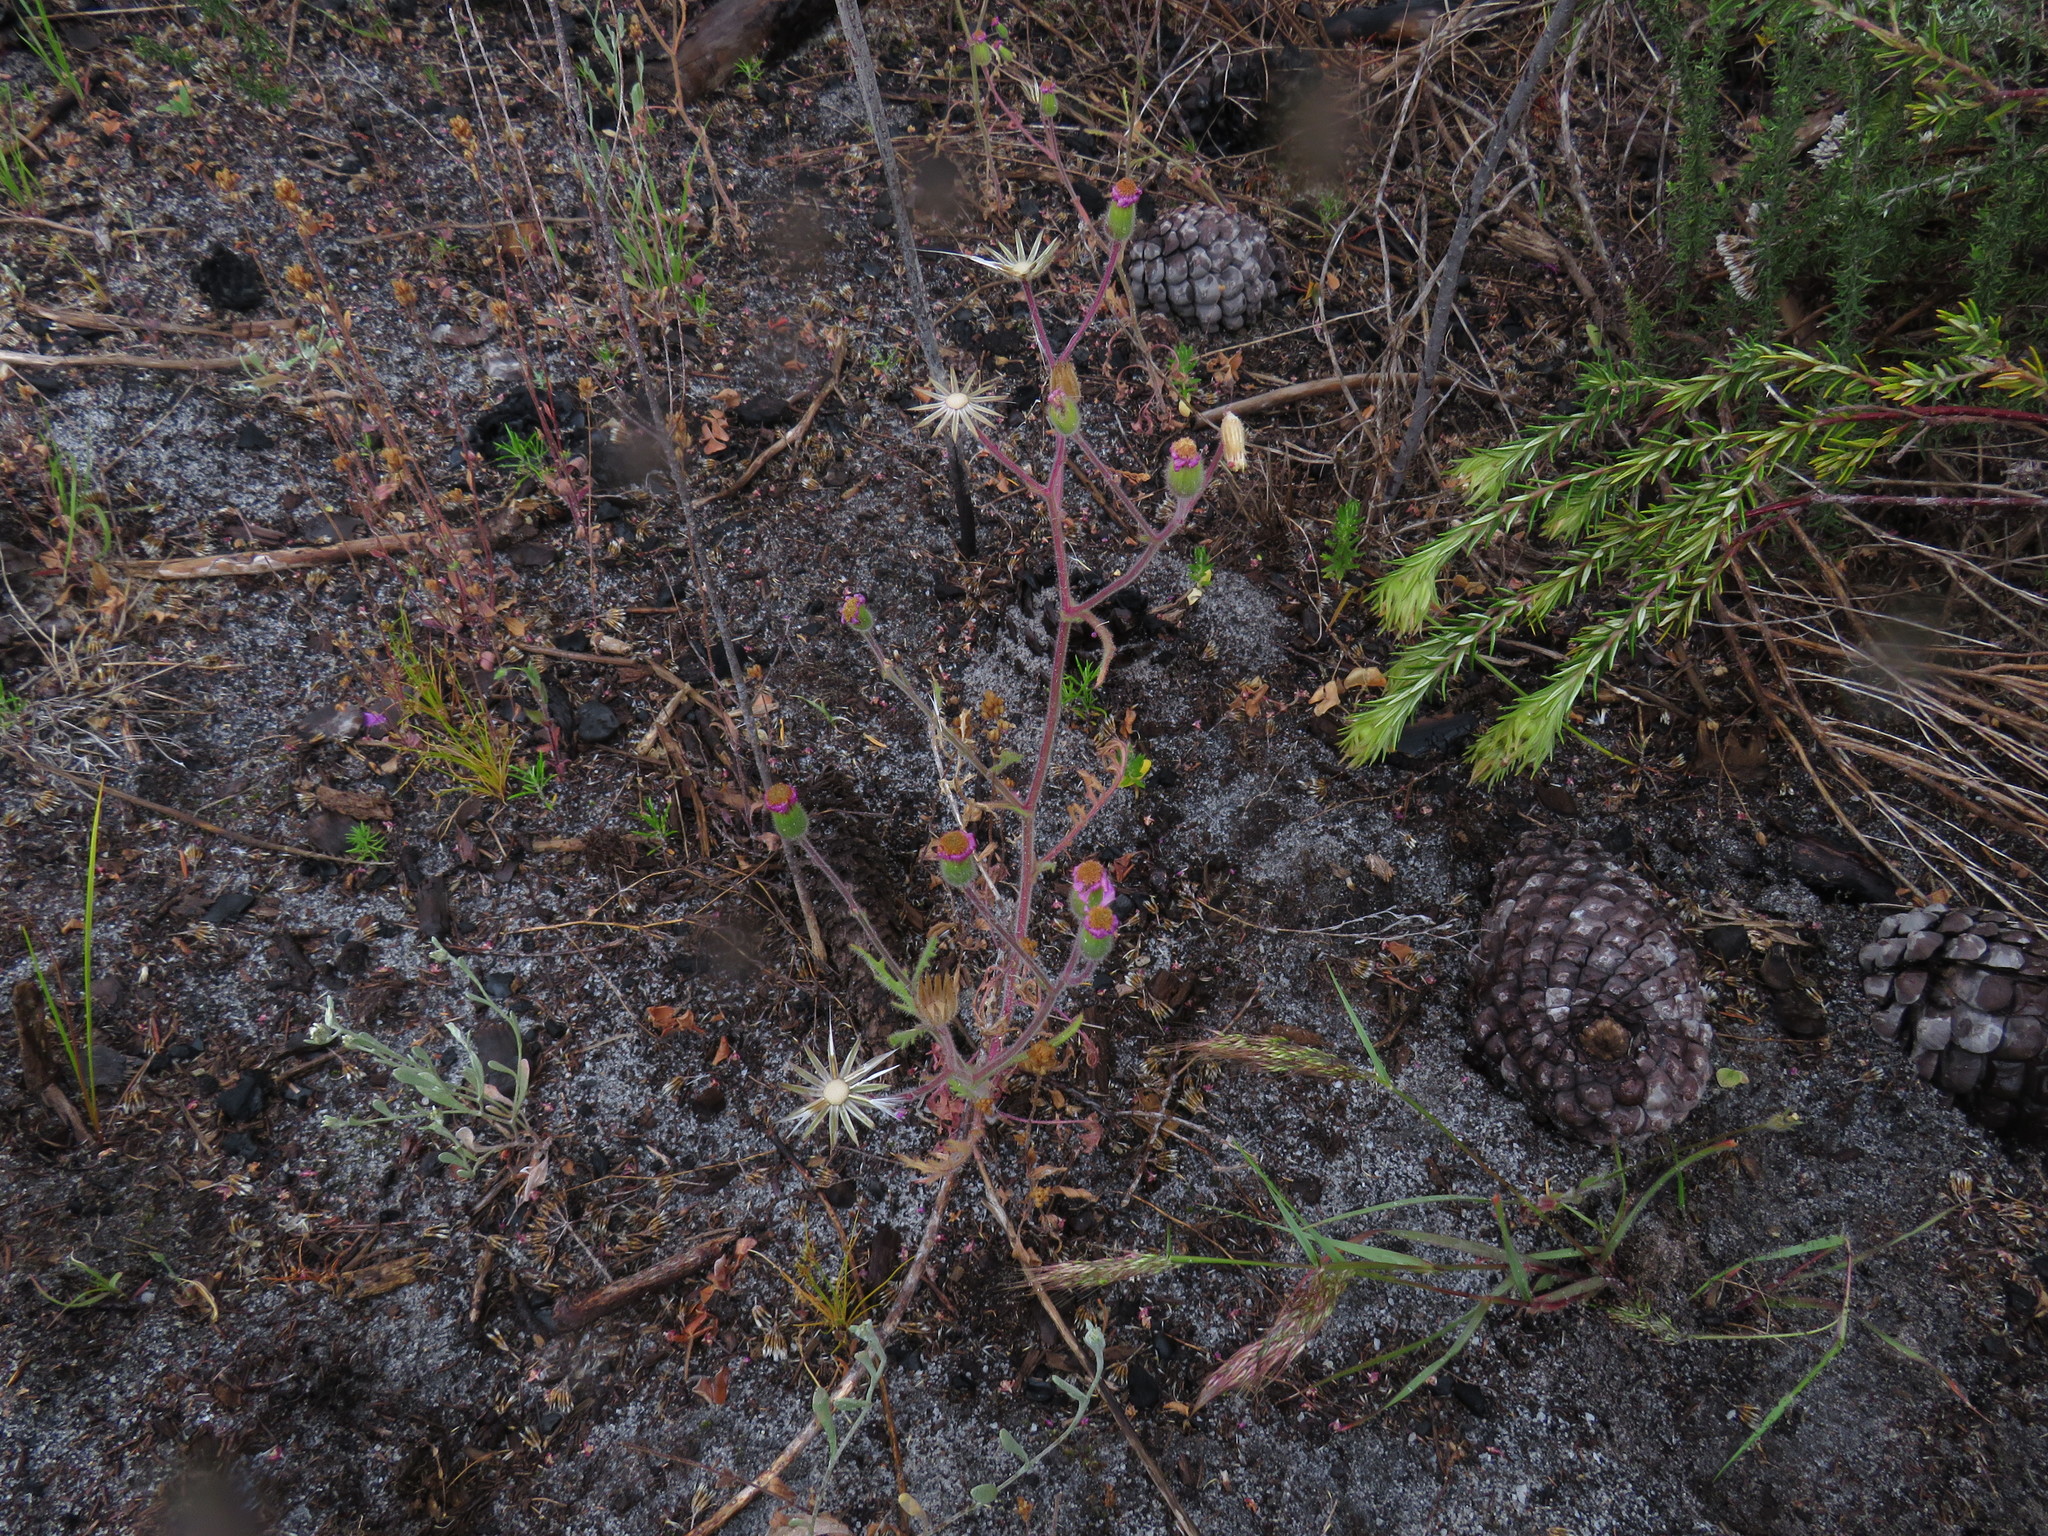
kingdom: Plantae
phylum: Tracheophyta
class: Magnoliopsida
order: Asterales
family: Asteraceae
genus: Senecio
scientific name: Senecio arenarius
